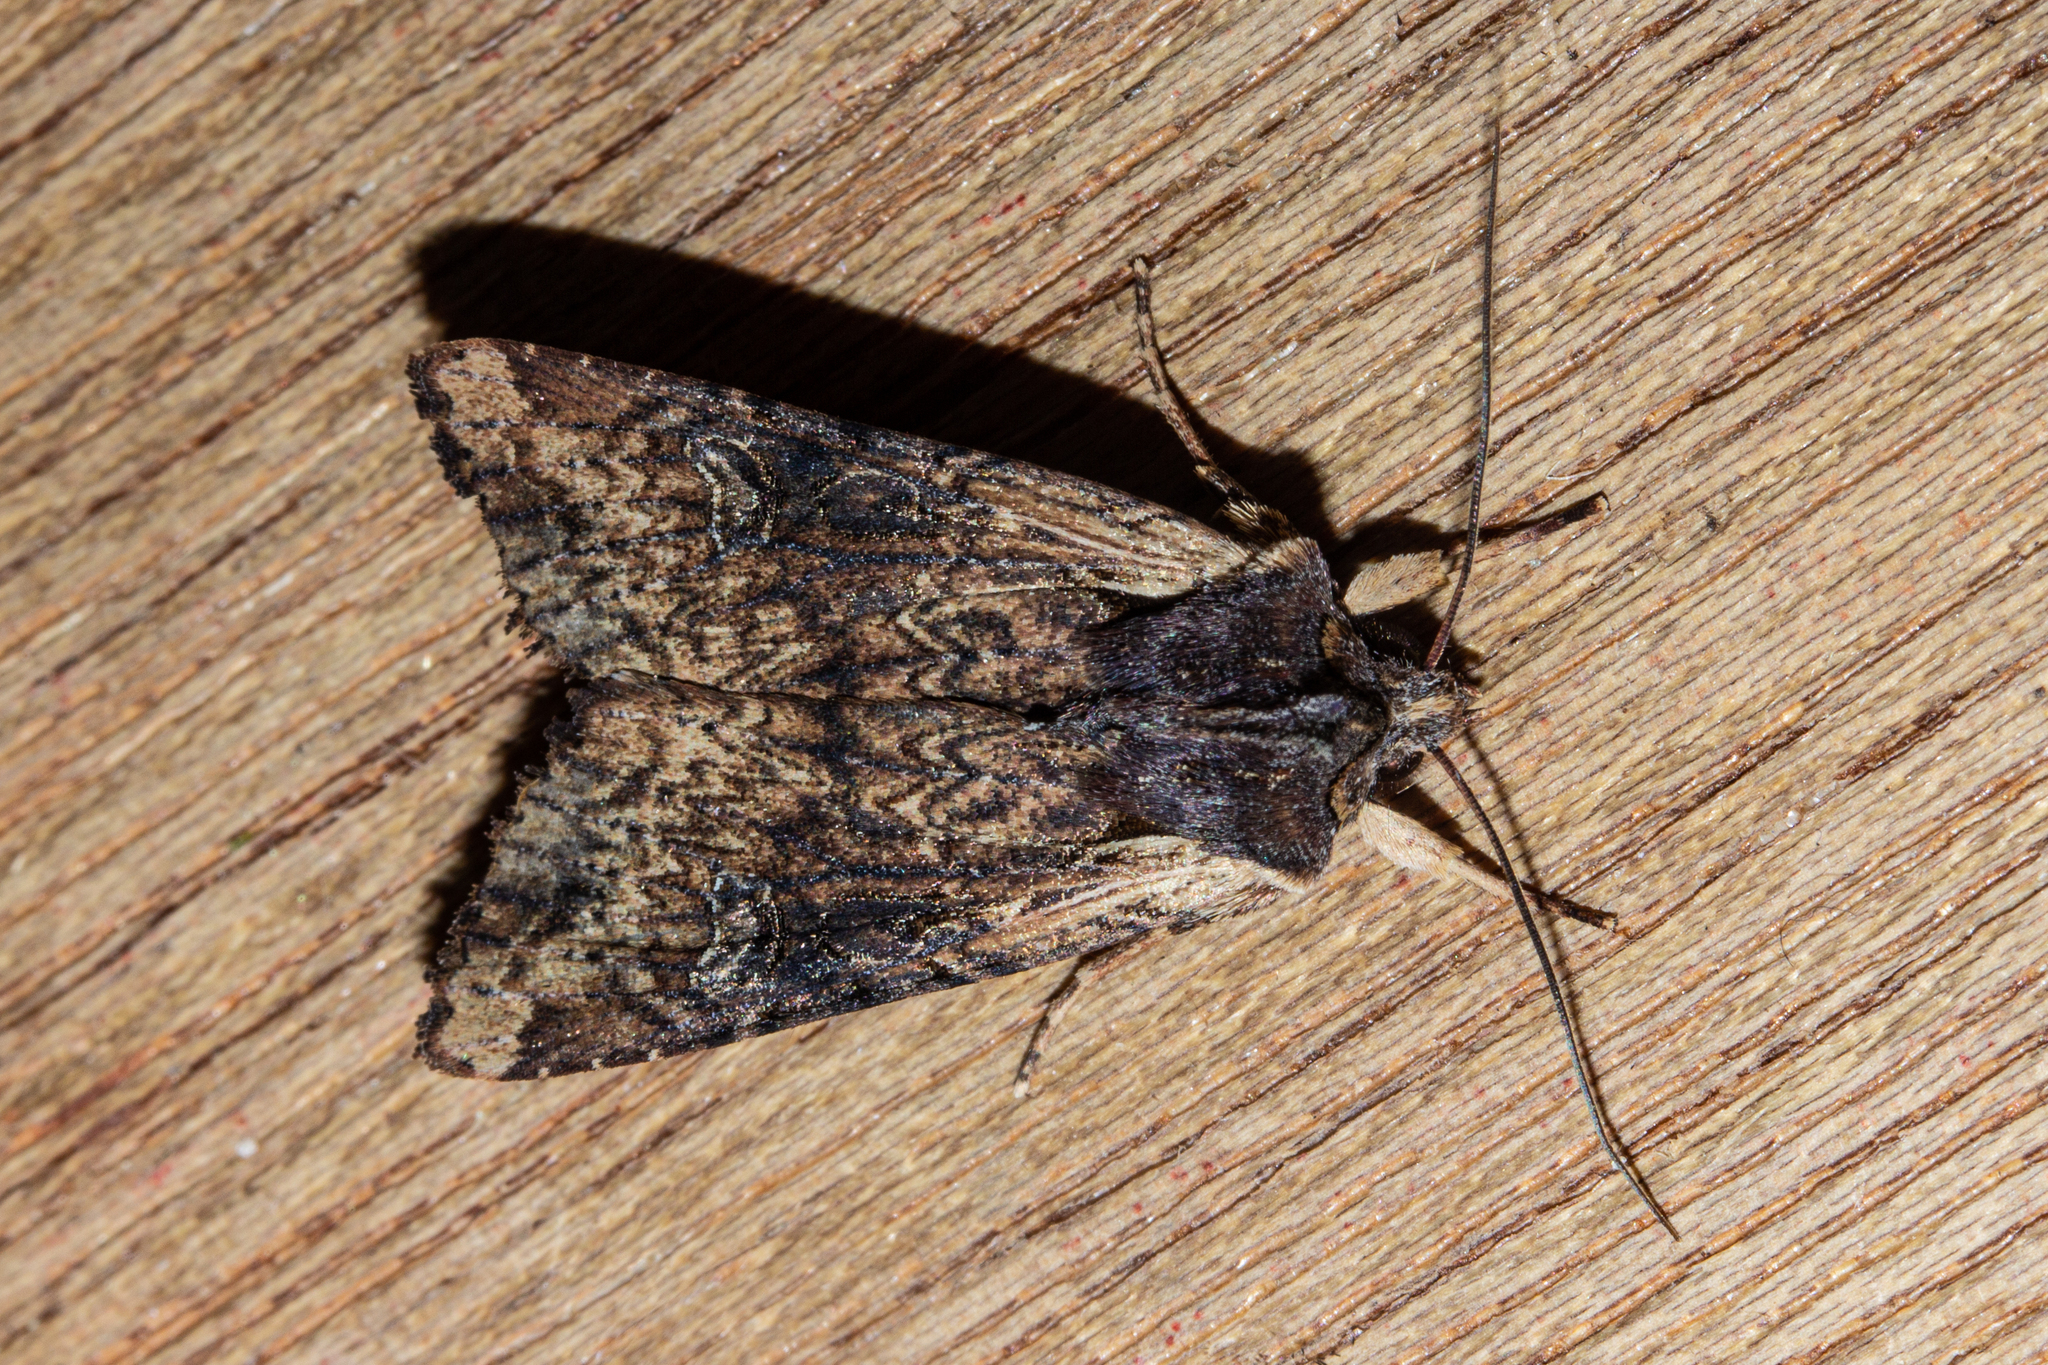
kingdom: Animalia
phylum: Arthropoda
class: Insecta
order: Lepidoptera
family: Noctuidae
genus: Ichneutica
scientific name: Ichneutica omoplaca
